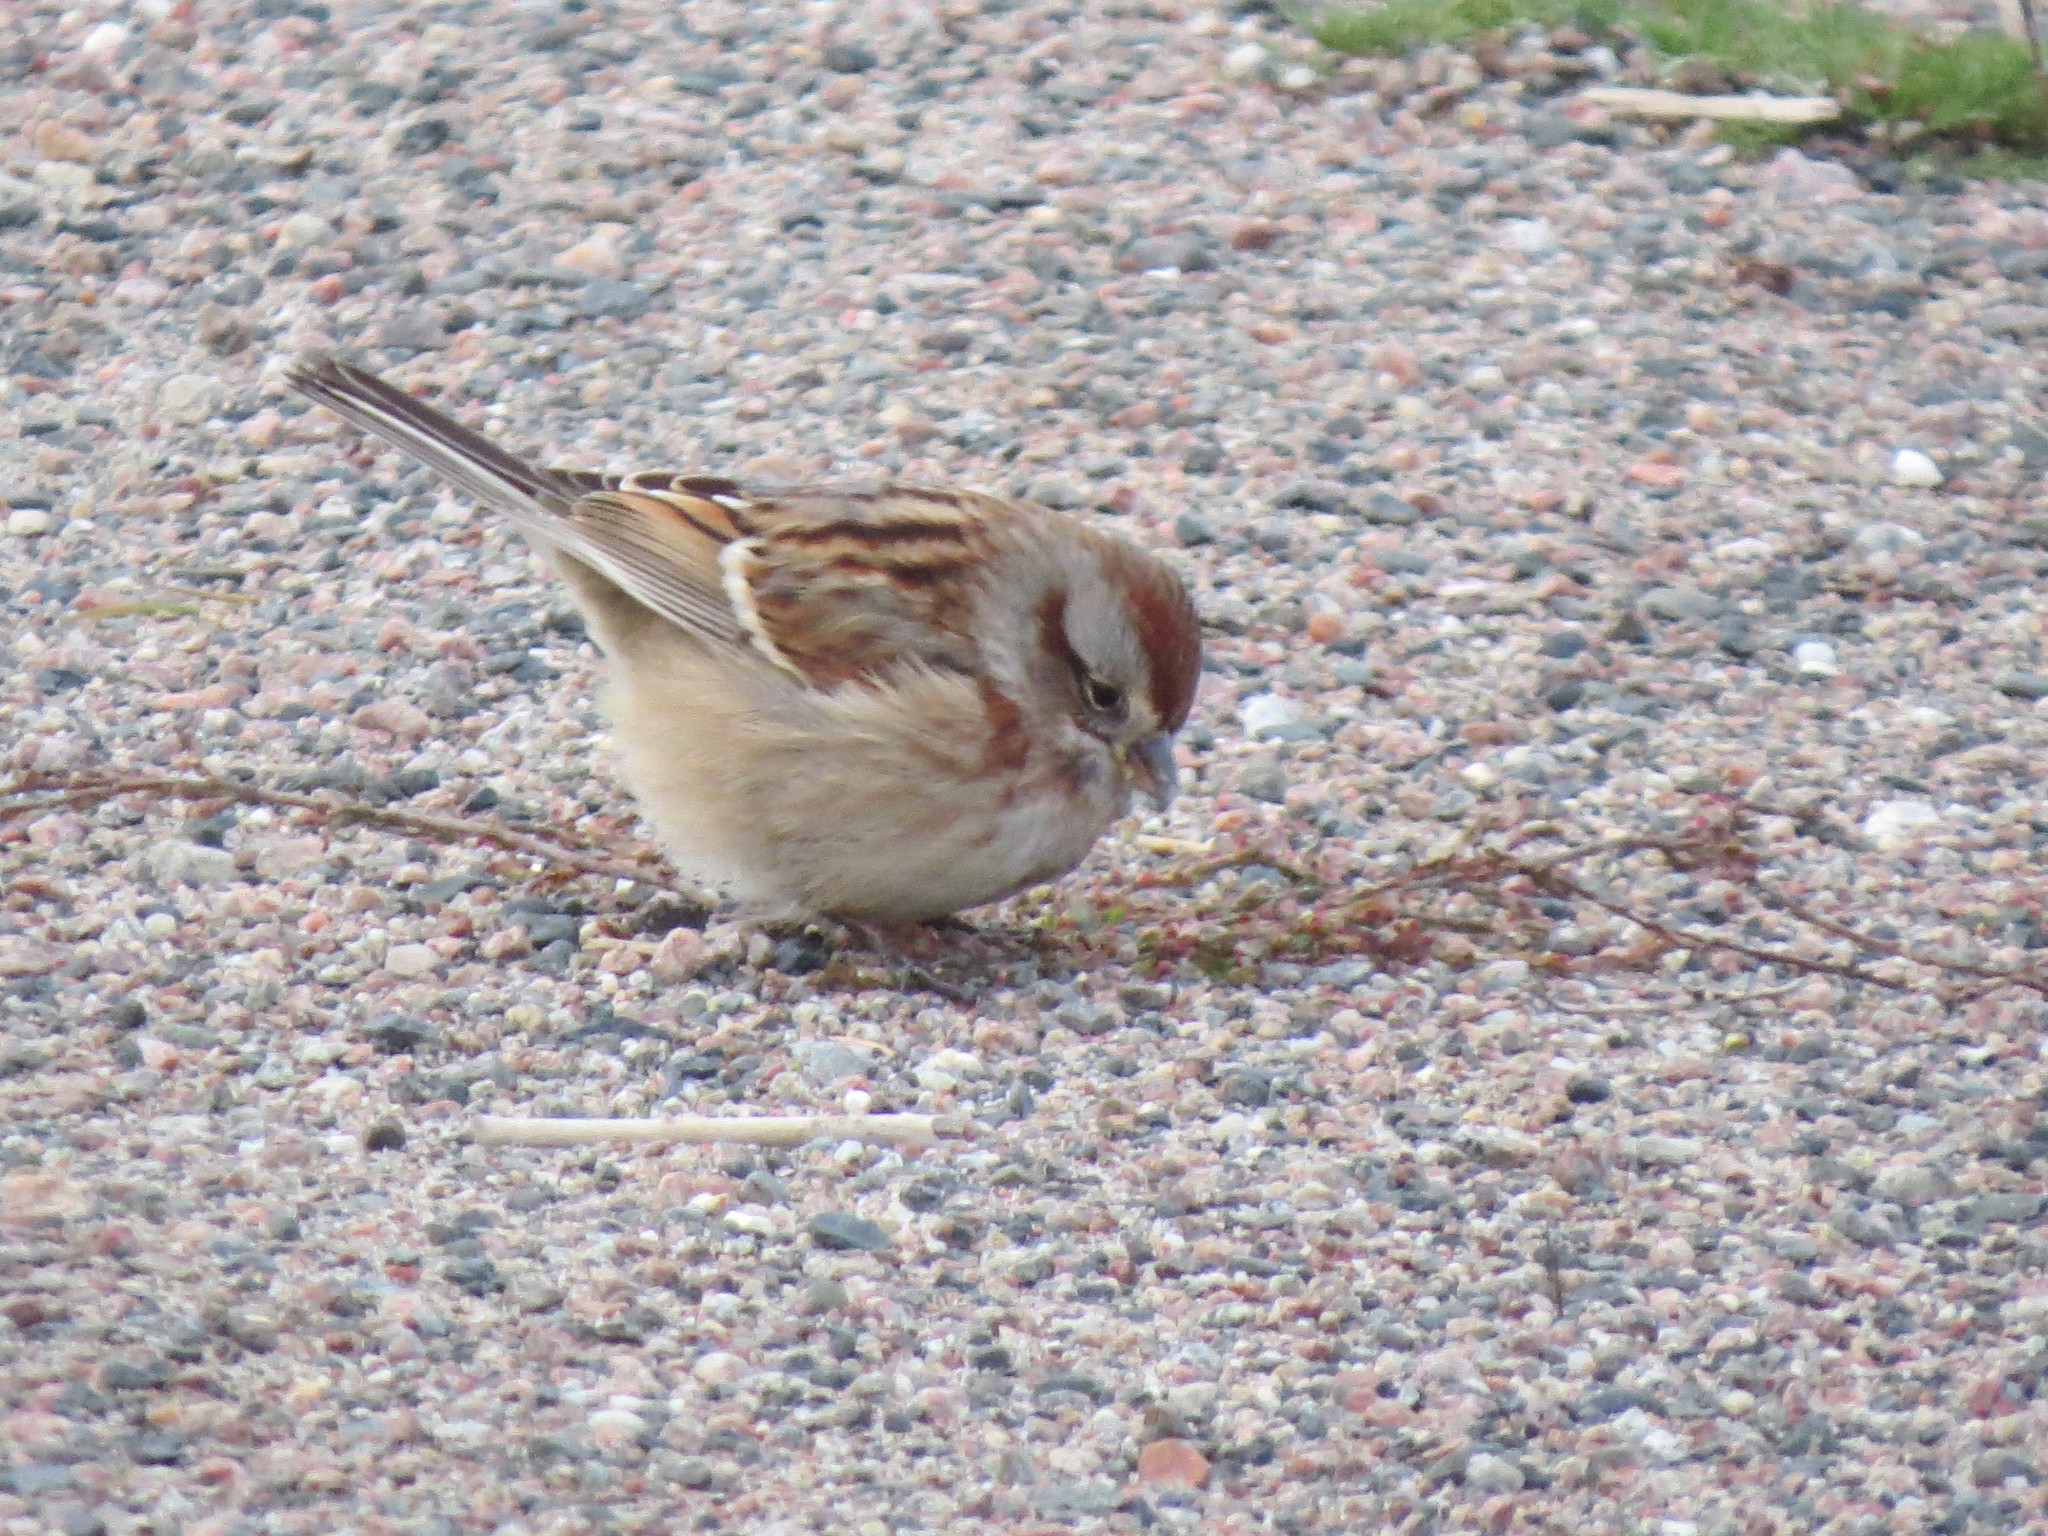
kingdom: Animalia
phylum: Chordata
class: Aves
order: Passeriformes
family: Passerellidae
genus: Spizelloides
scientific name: Spizelloides arborea
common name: American tree sparrow
